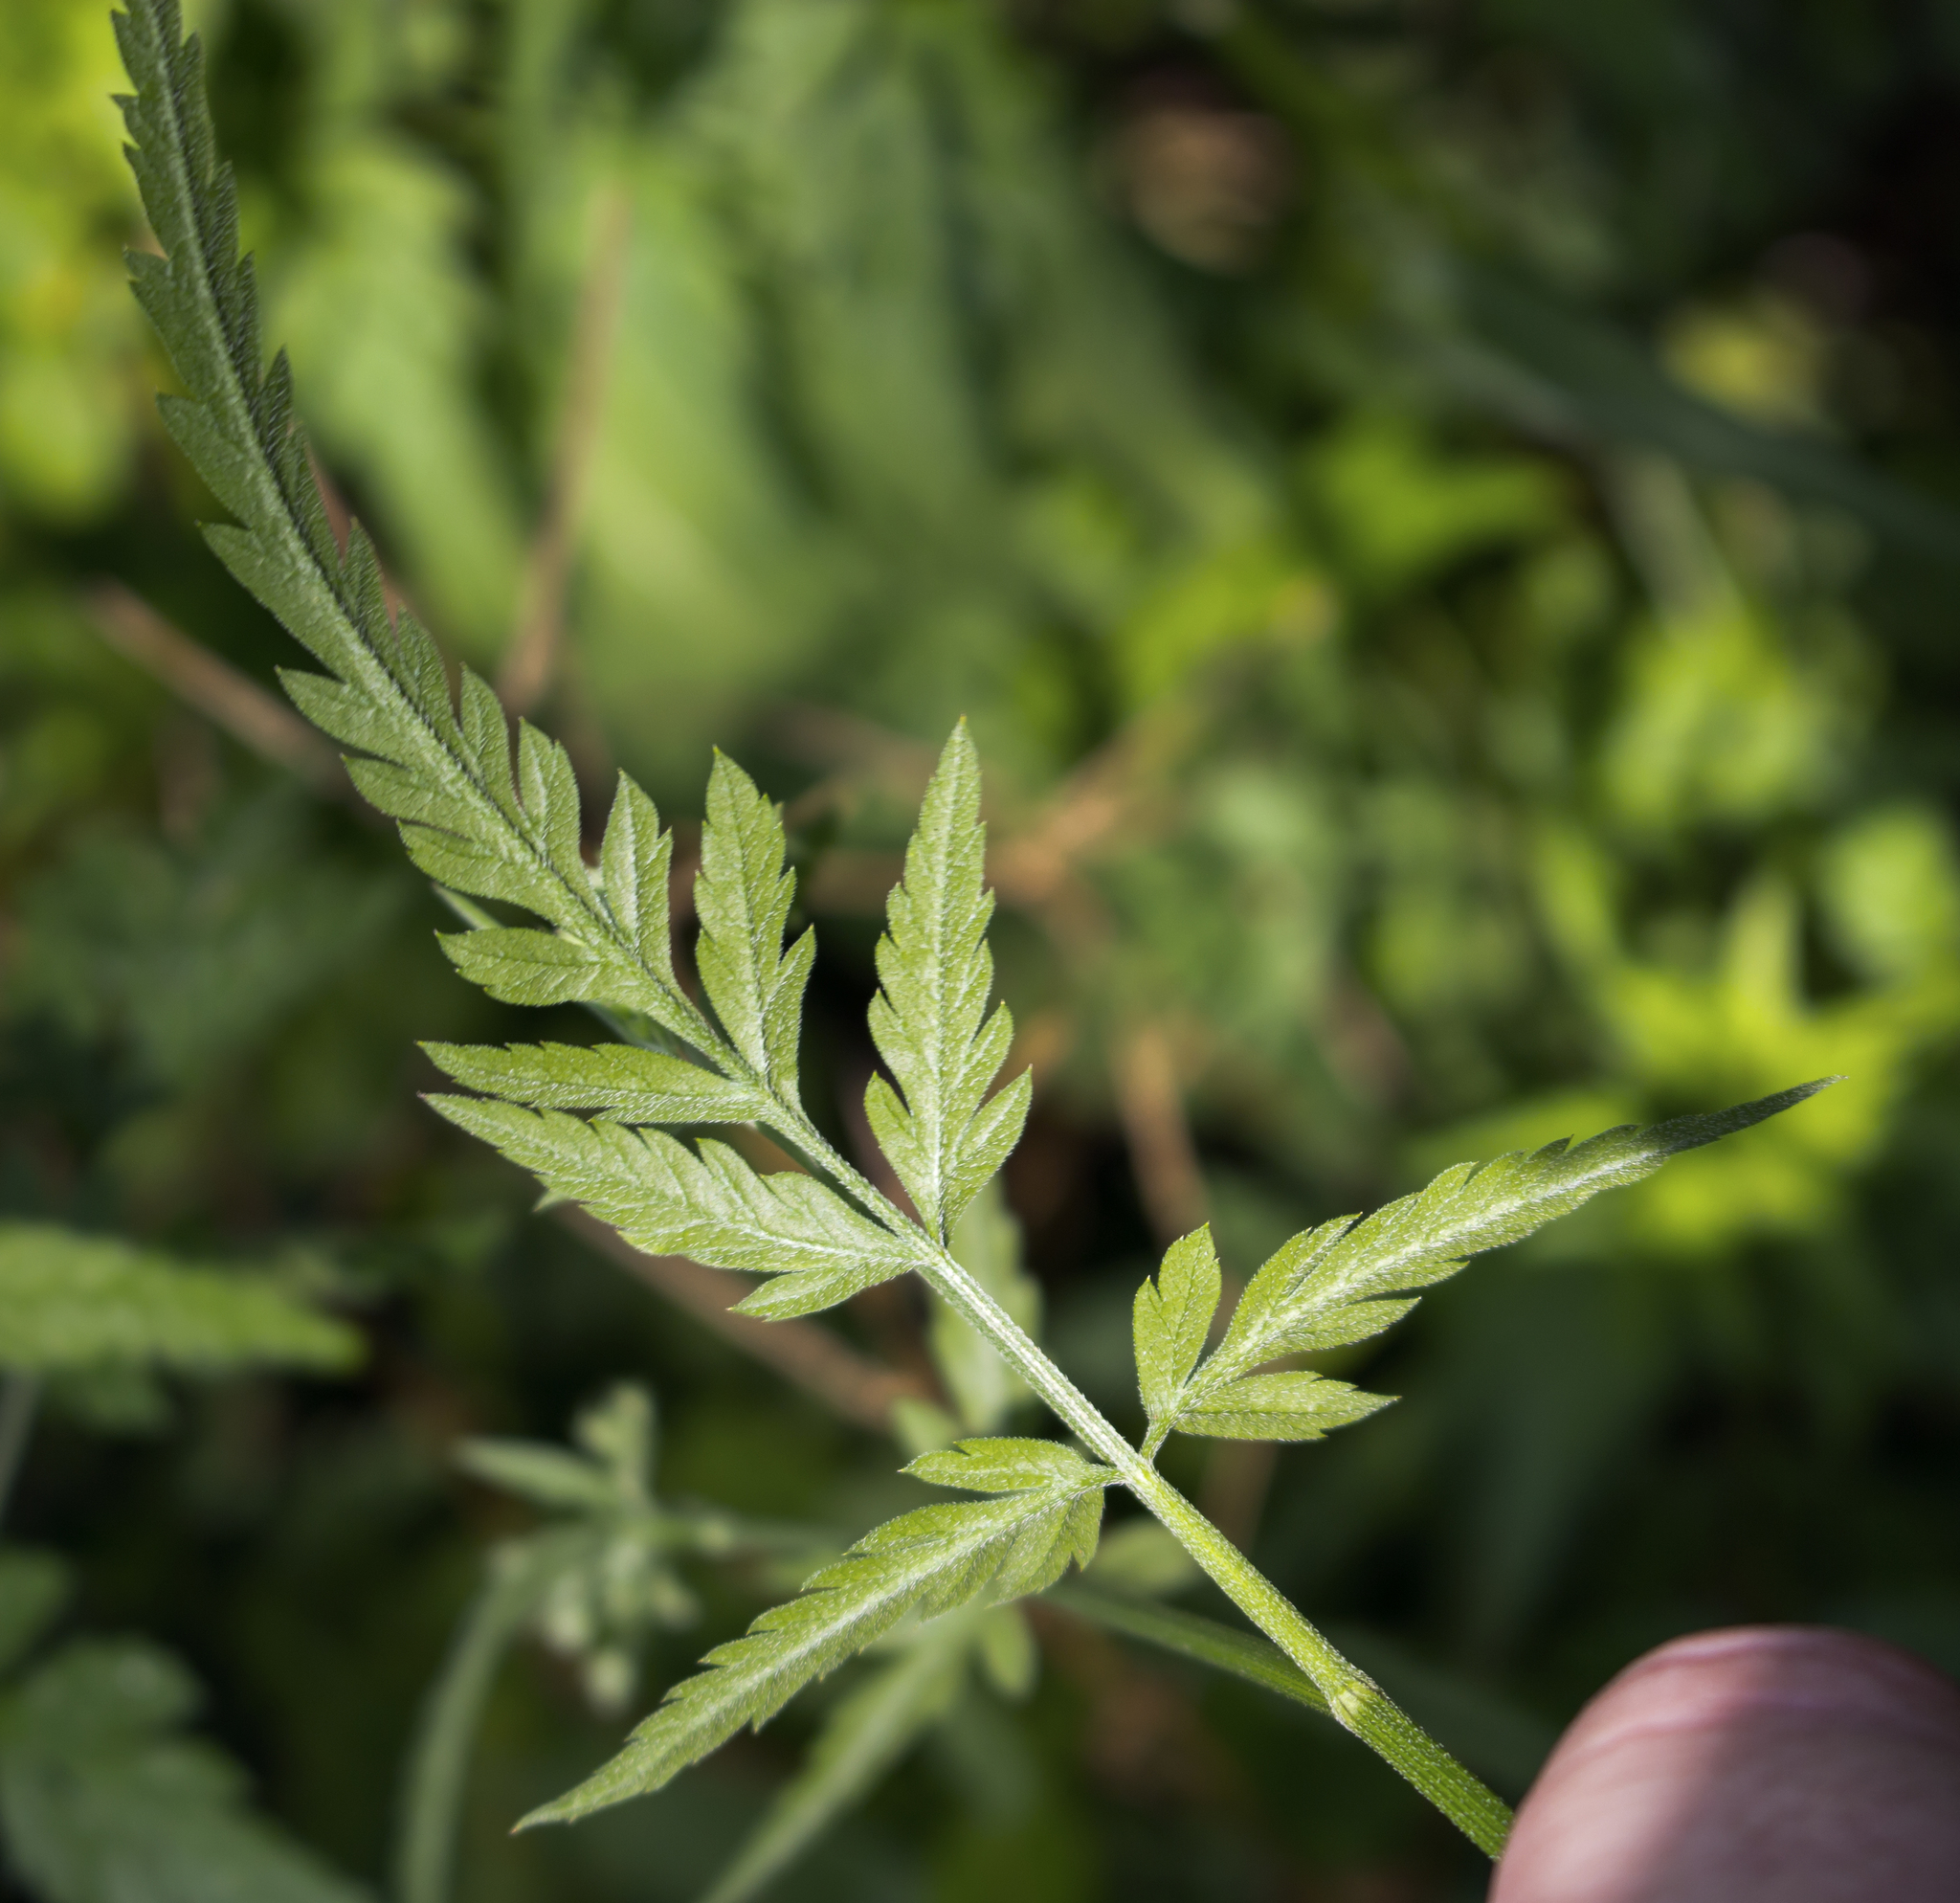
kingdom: Plantae
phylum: Tracheophyta
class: Magnoliopsida
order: Apiales
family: Apiaceae
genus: Torilis
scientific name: Torilis japonica
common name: Upright hedge-parsley
